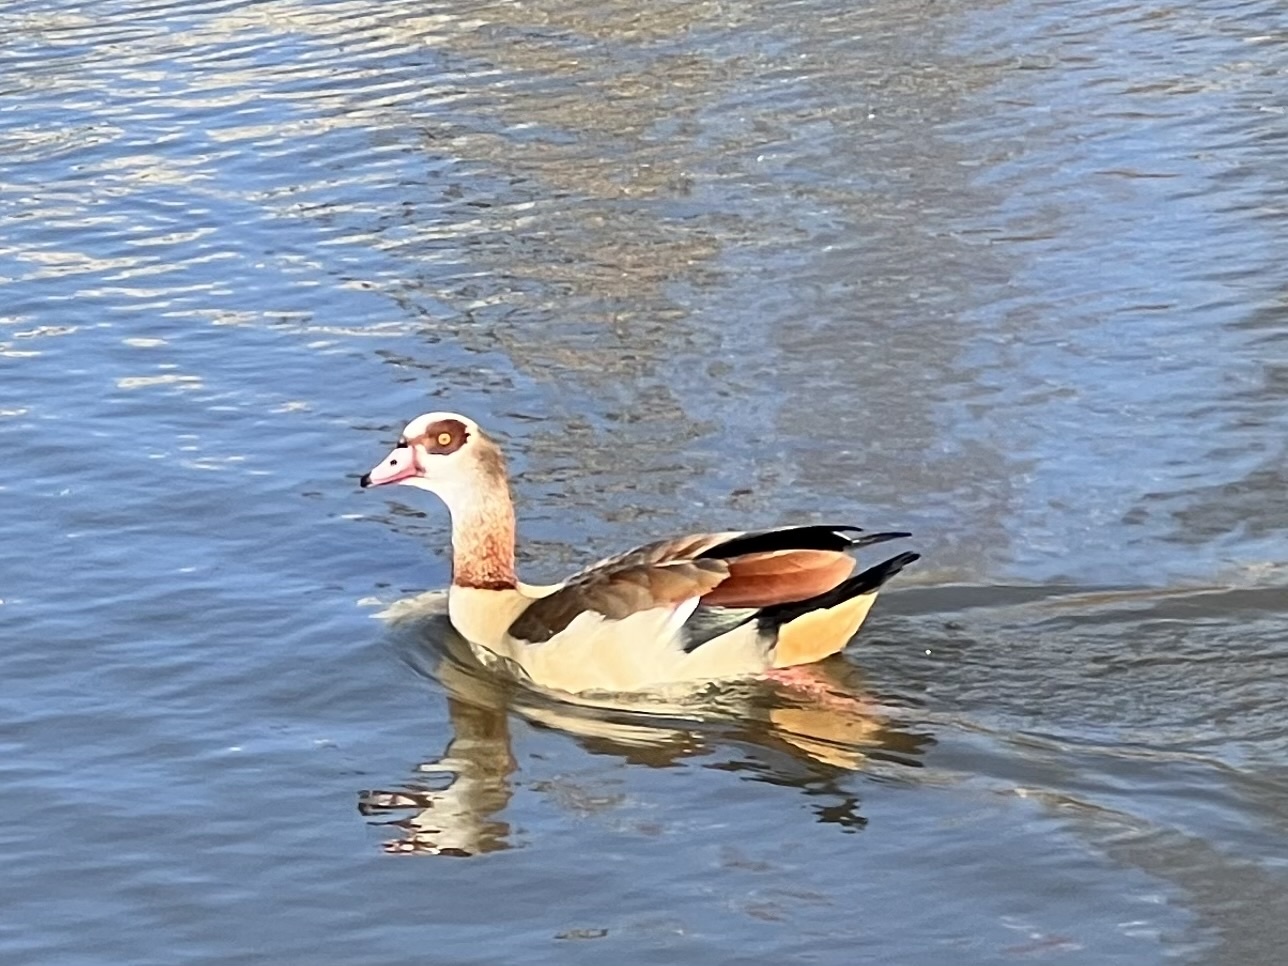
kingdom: Animalia
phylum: Chordata
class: Aves
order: Anseriformes
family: Anatidae
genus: Alopochen
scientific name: Alopochen aegyptiaca
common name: Egyptian goose
